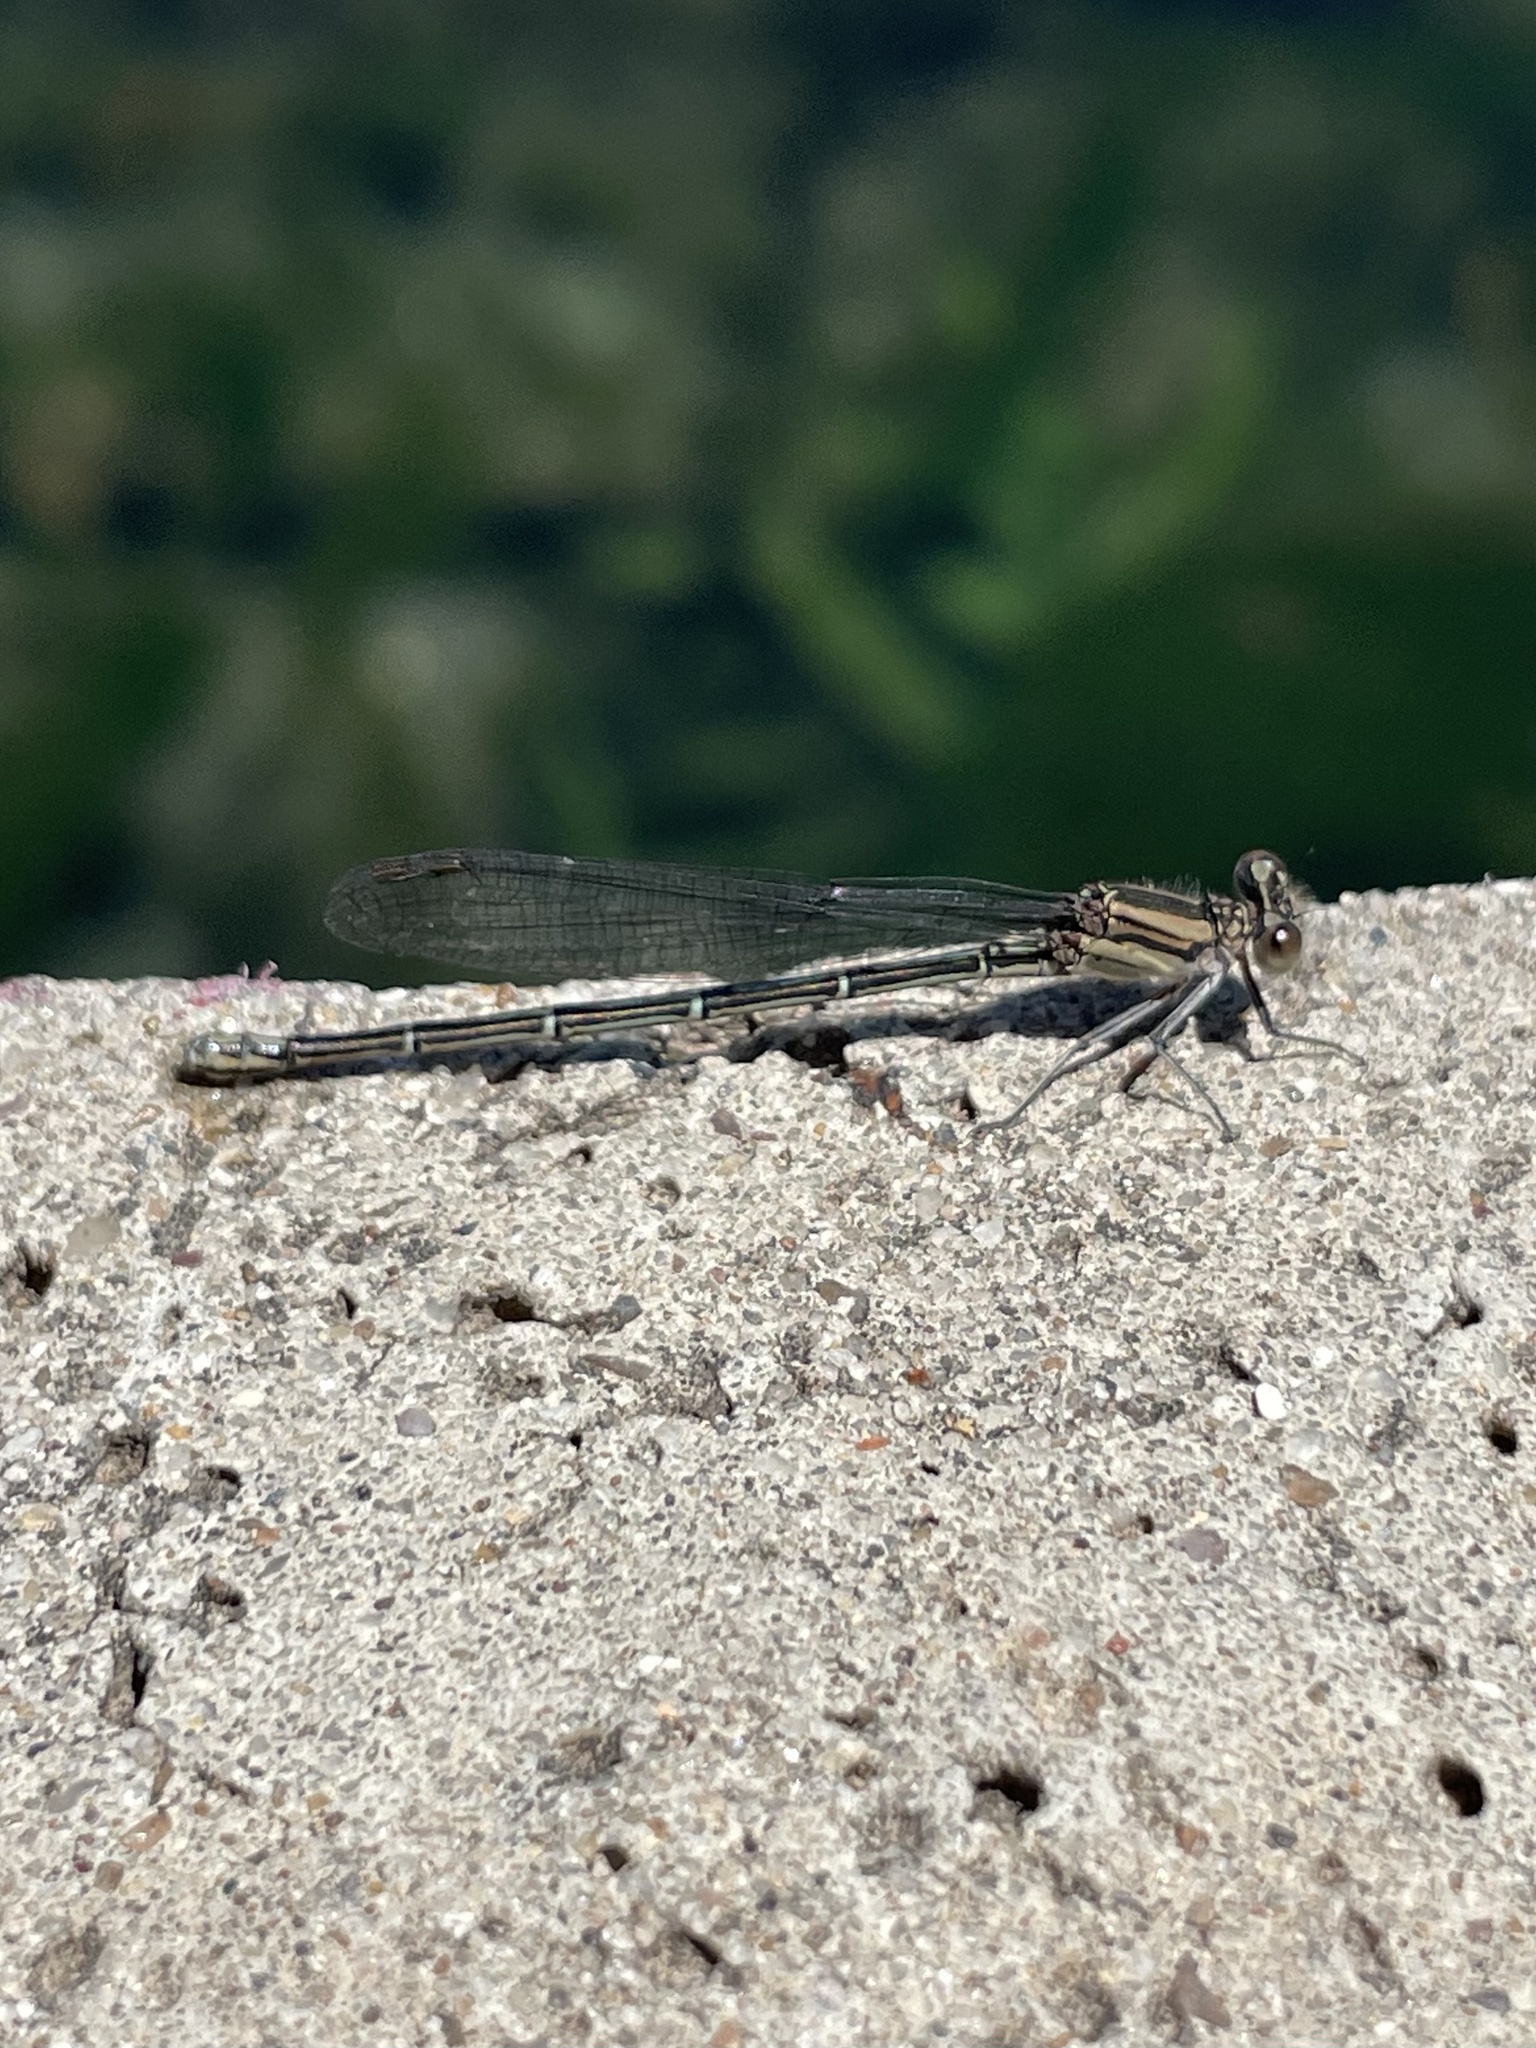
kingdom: Animalia
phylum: Arthropoda
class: Insecta
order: Odonata
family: Coenagrionidae
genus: Argia
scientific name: Argia translata
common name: Dusky dancer
